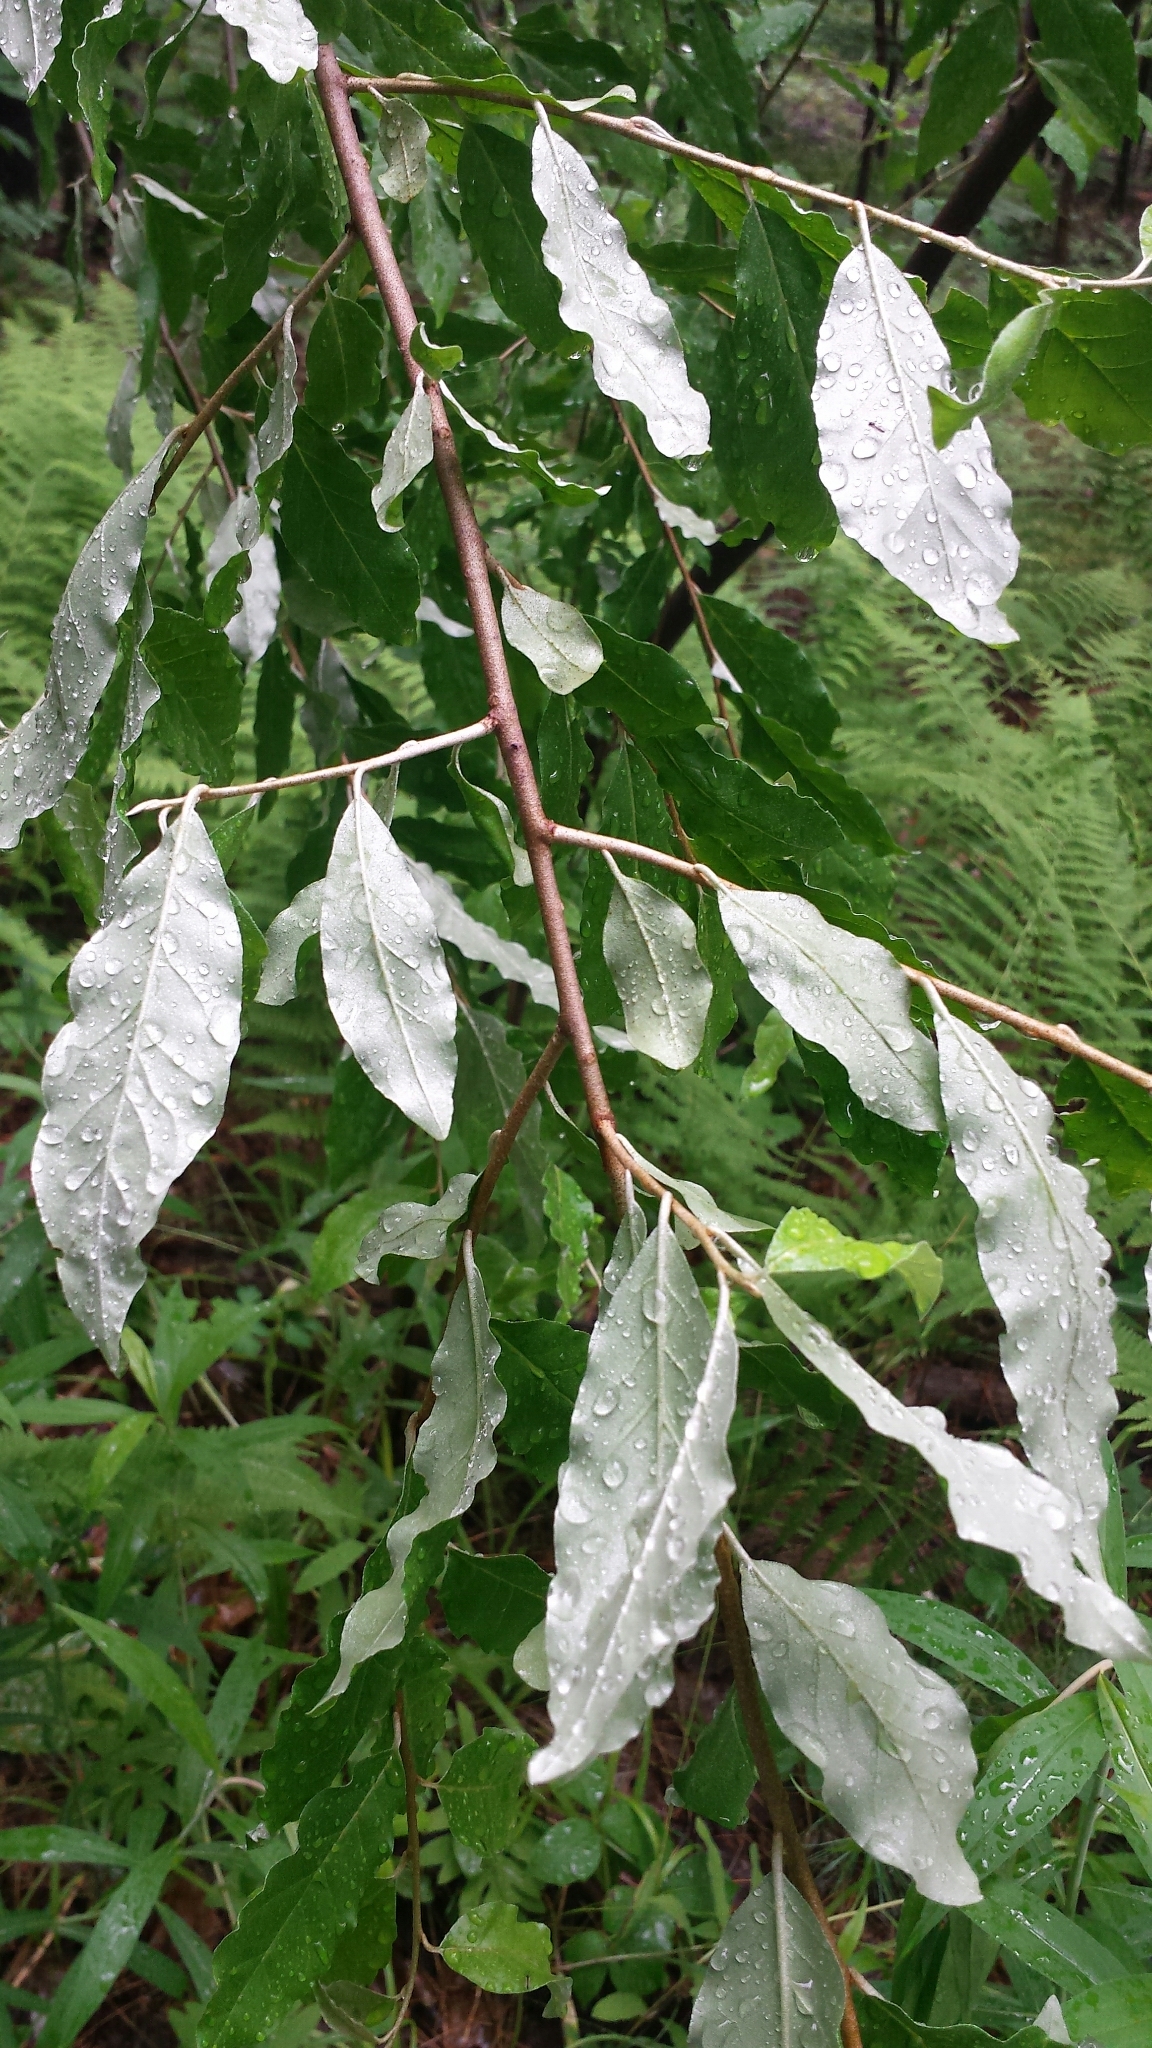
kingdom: Plantae
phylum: Tracheophyta
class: Magnoliopsida
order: Rosales
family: Elaeagnaceae
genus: Elaeagnus
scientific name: Elaeagnus umbellata
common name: Autumn olive
